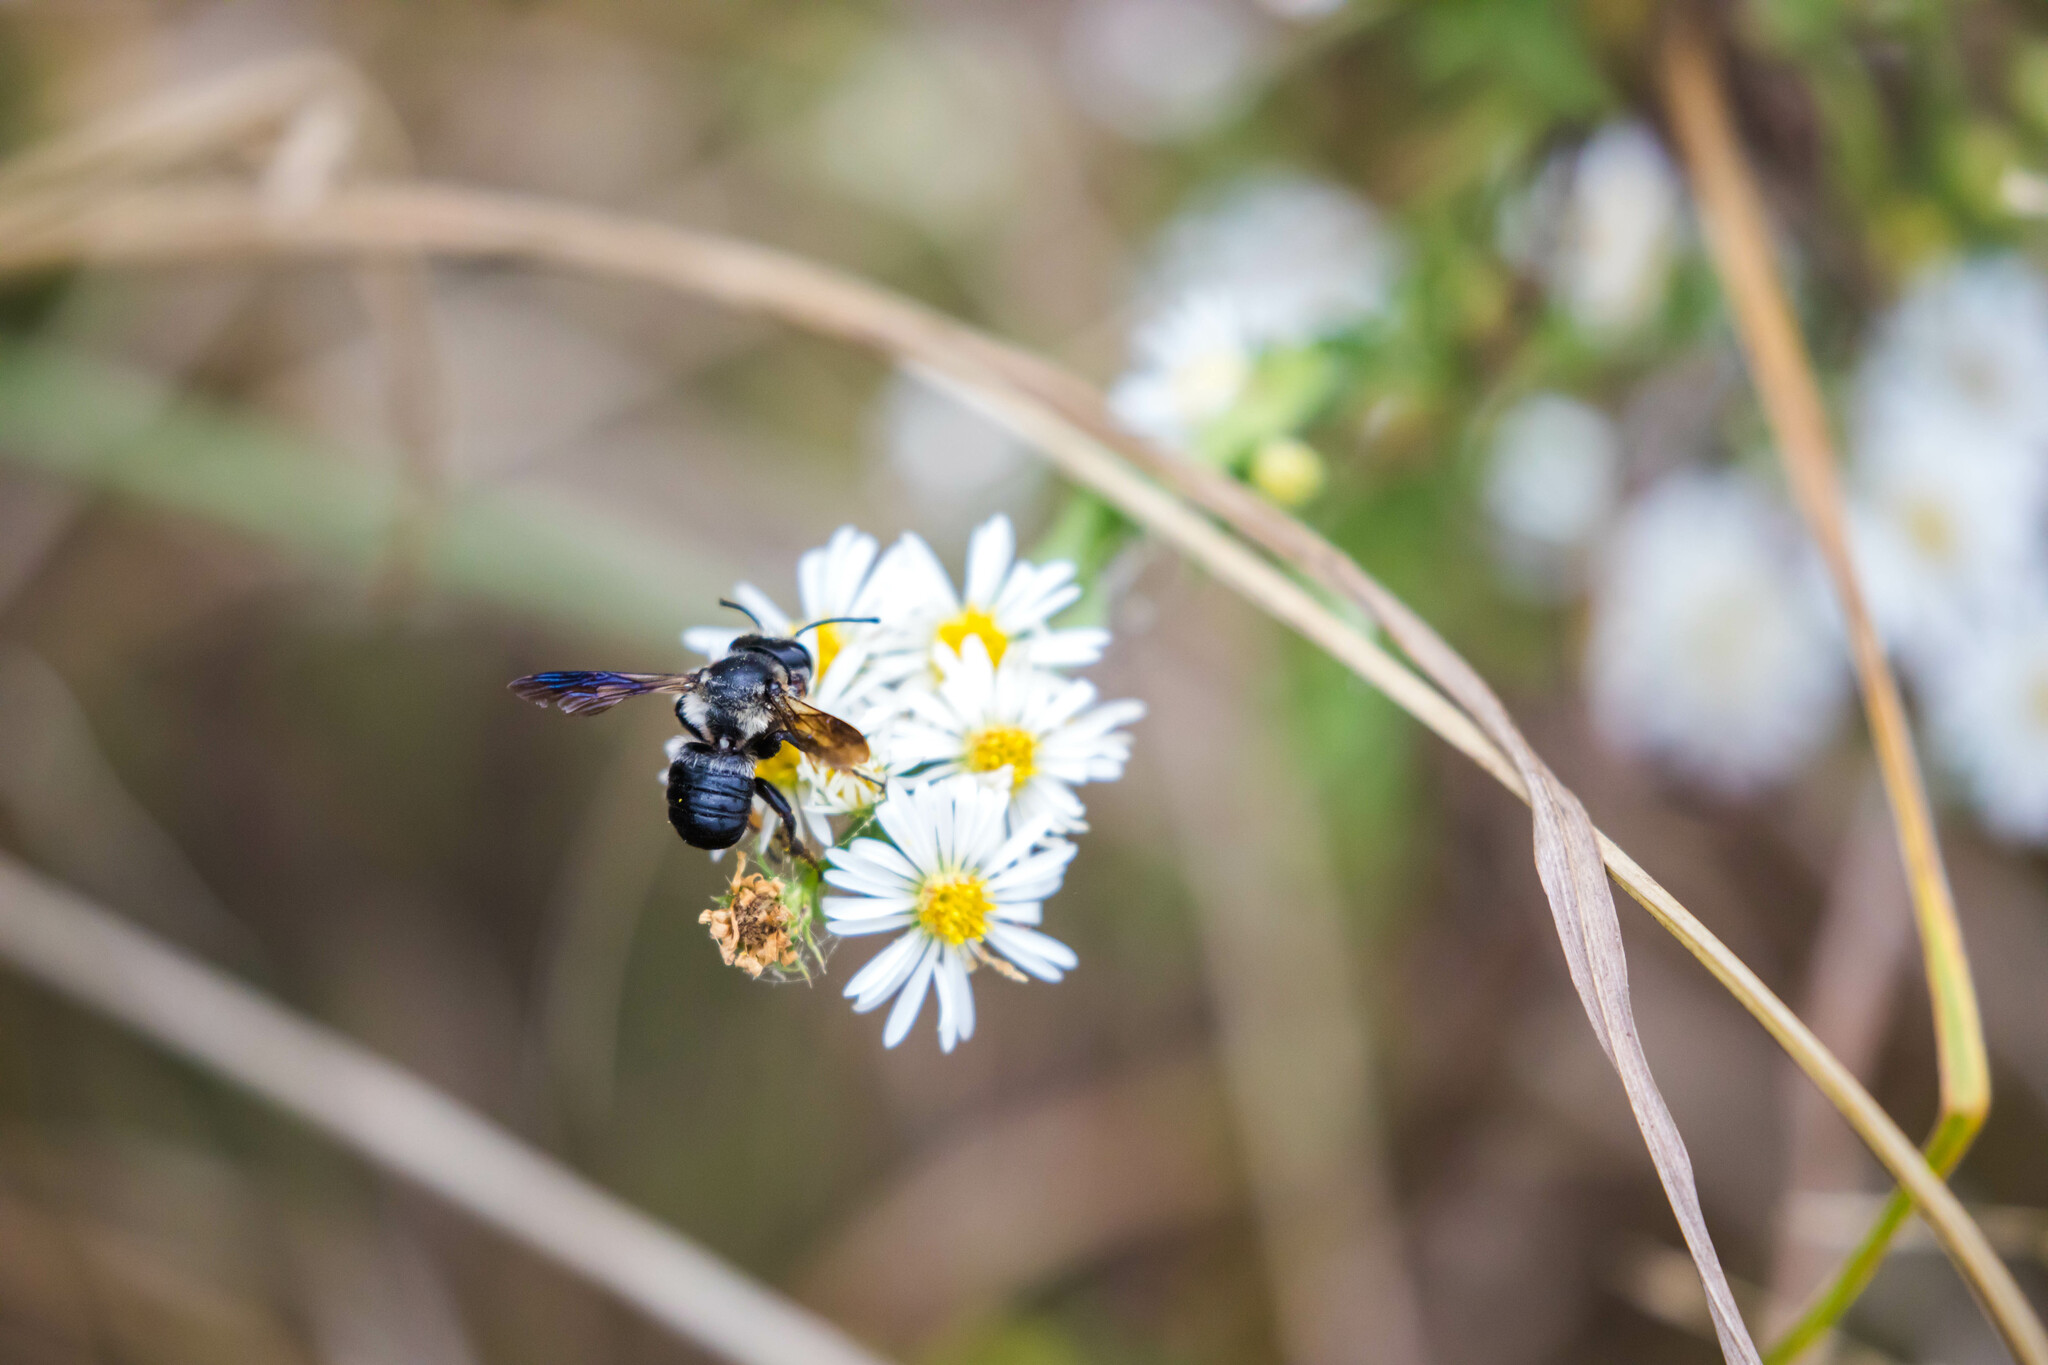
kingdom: Animalia
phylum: Arthropoda
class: Insecta
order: Hymenoptera
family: Megachilidae
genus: Megachile
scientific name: Megachile xylocopoides
